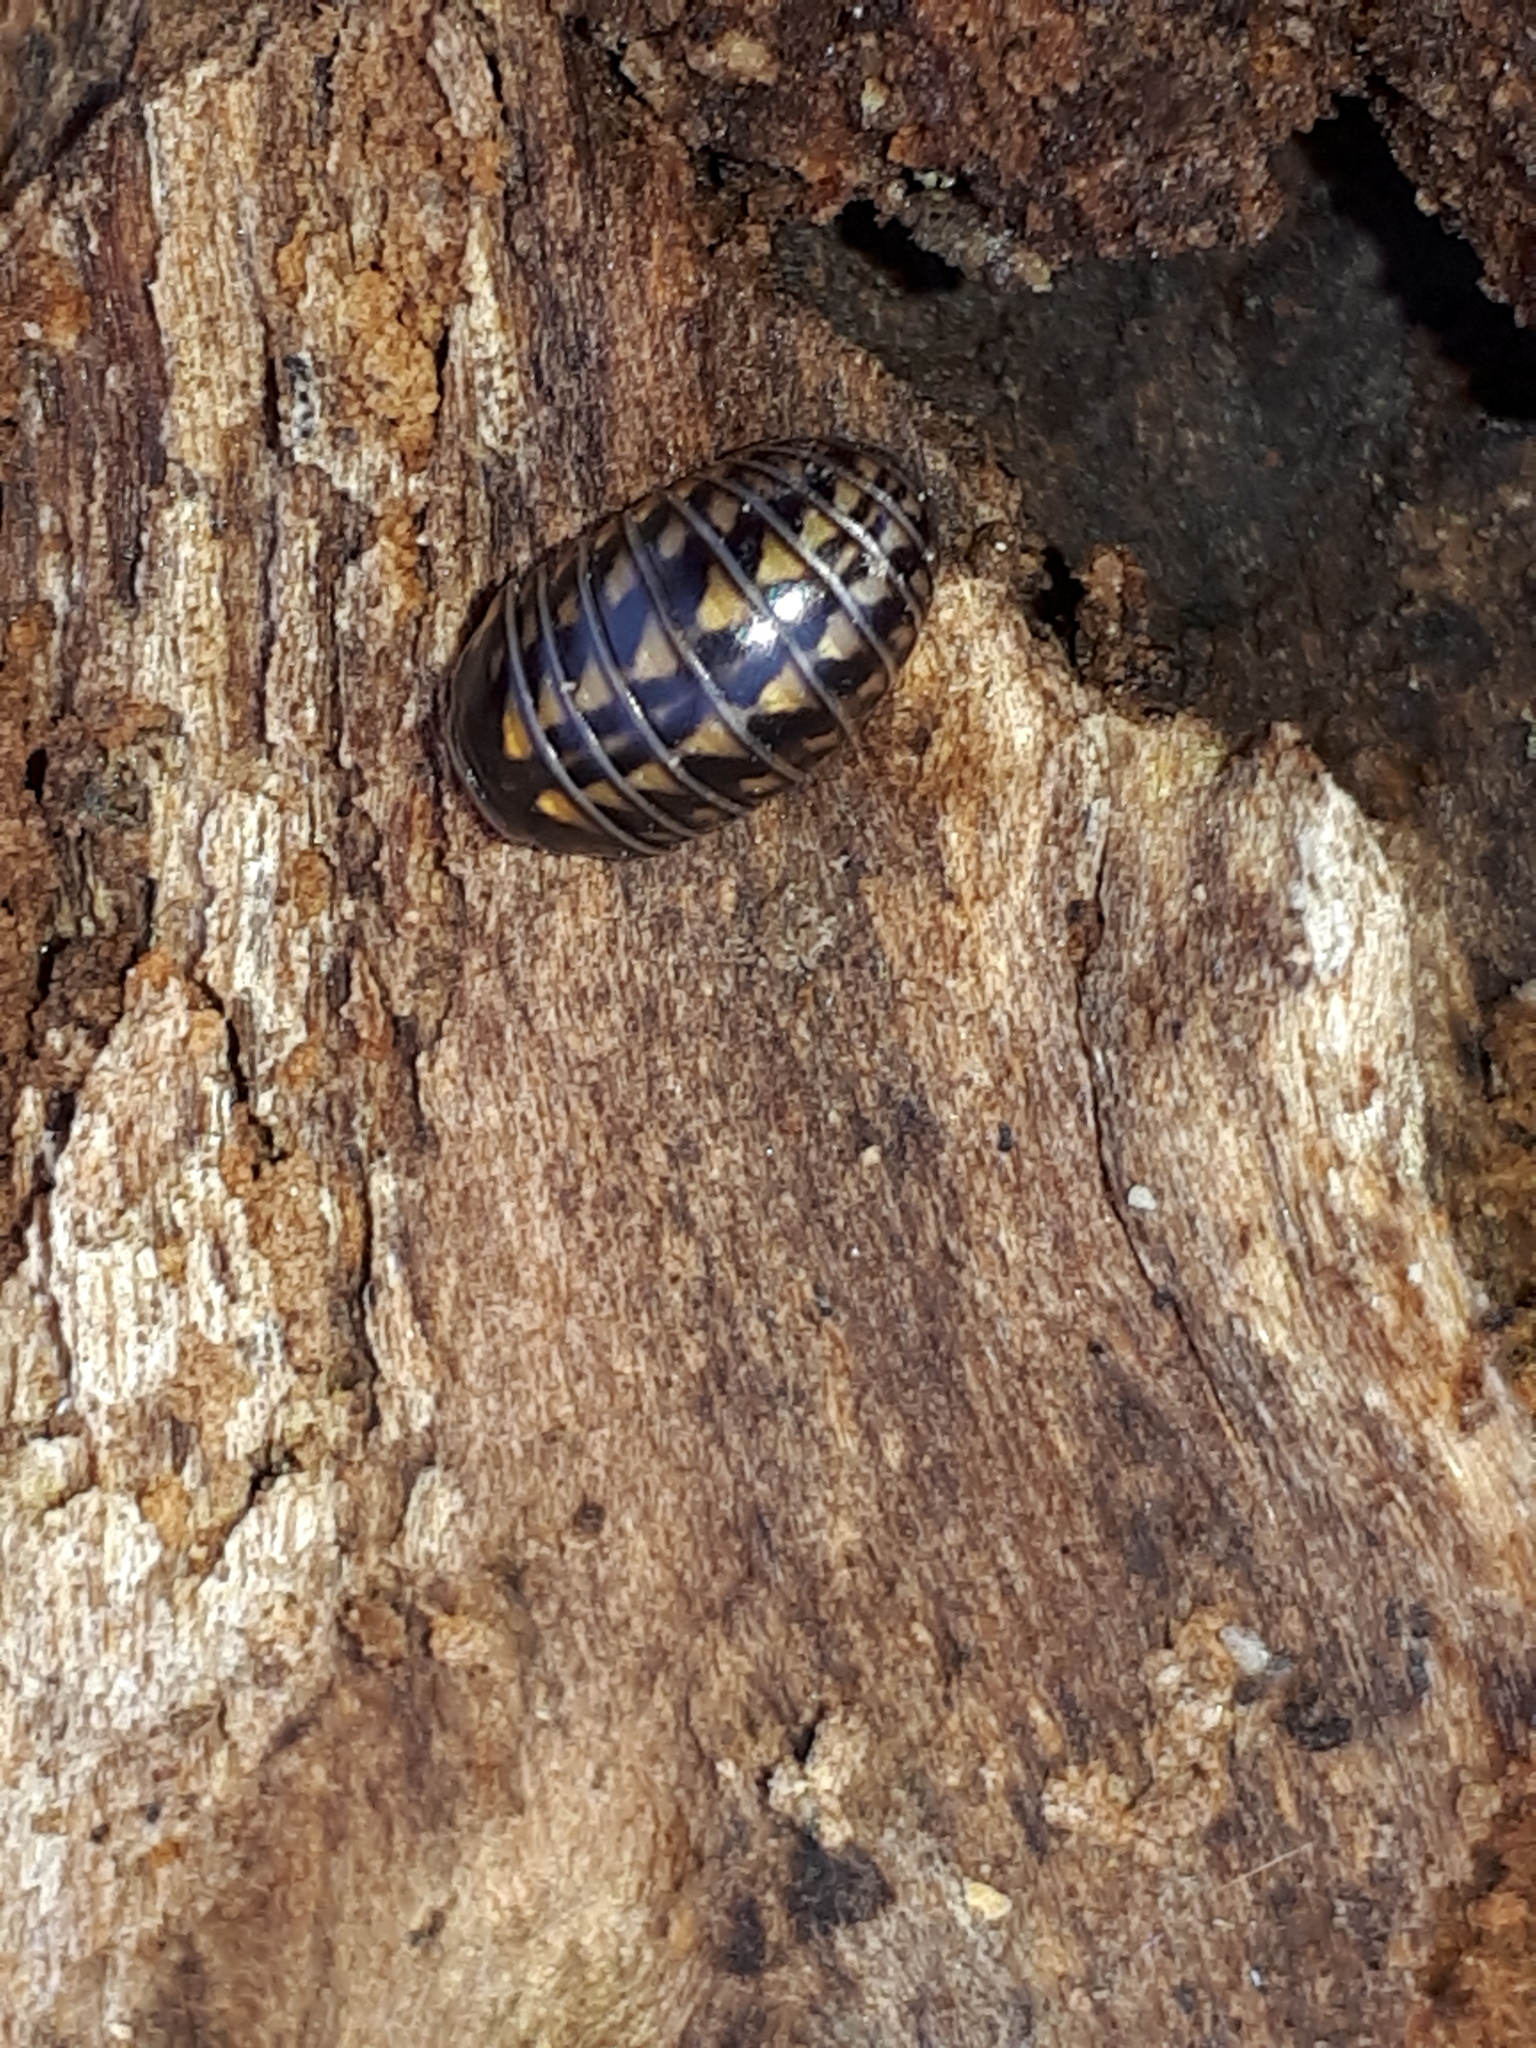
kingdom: Animalia
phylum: Arthropoda
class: Diplopoda
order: Glomerida
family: Glomeridae
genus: Glomeris
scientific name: Glomeris hexasticha
